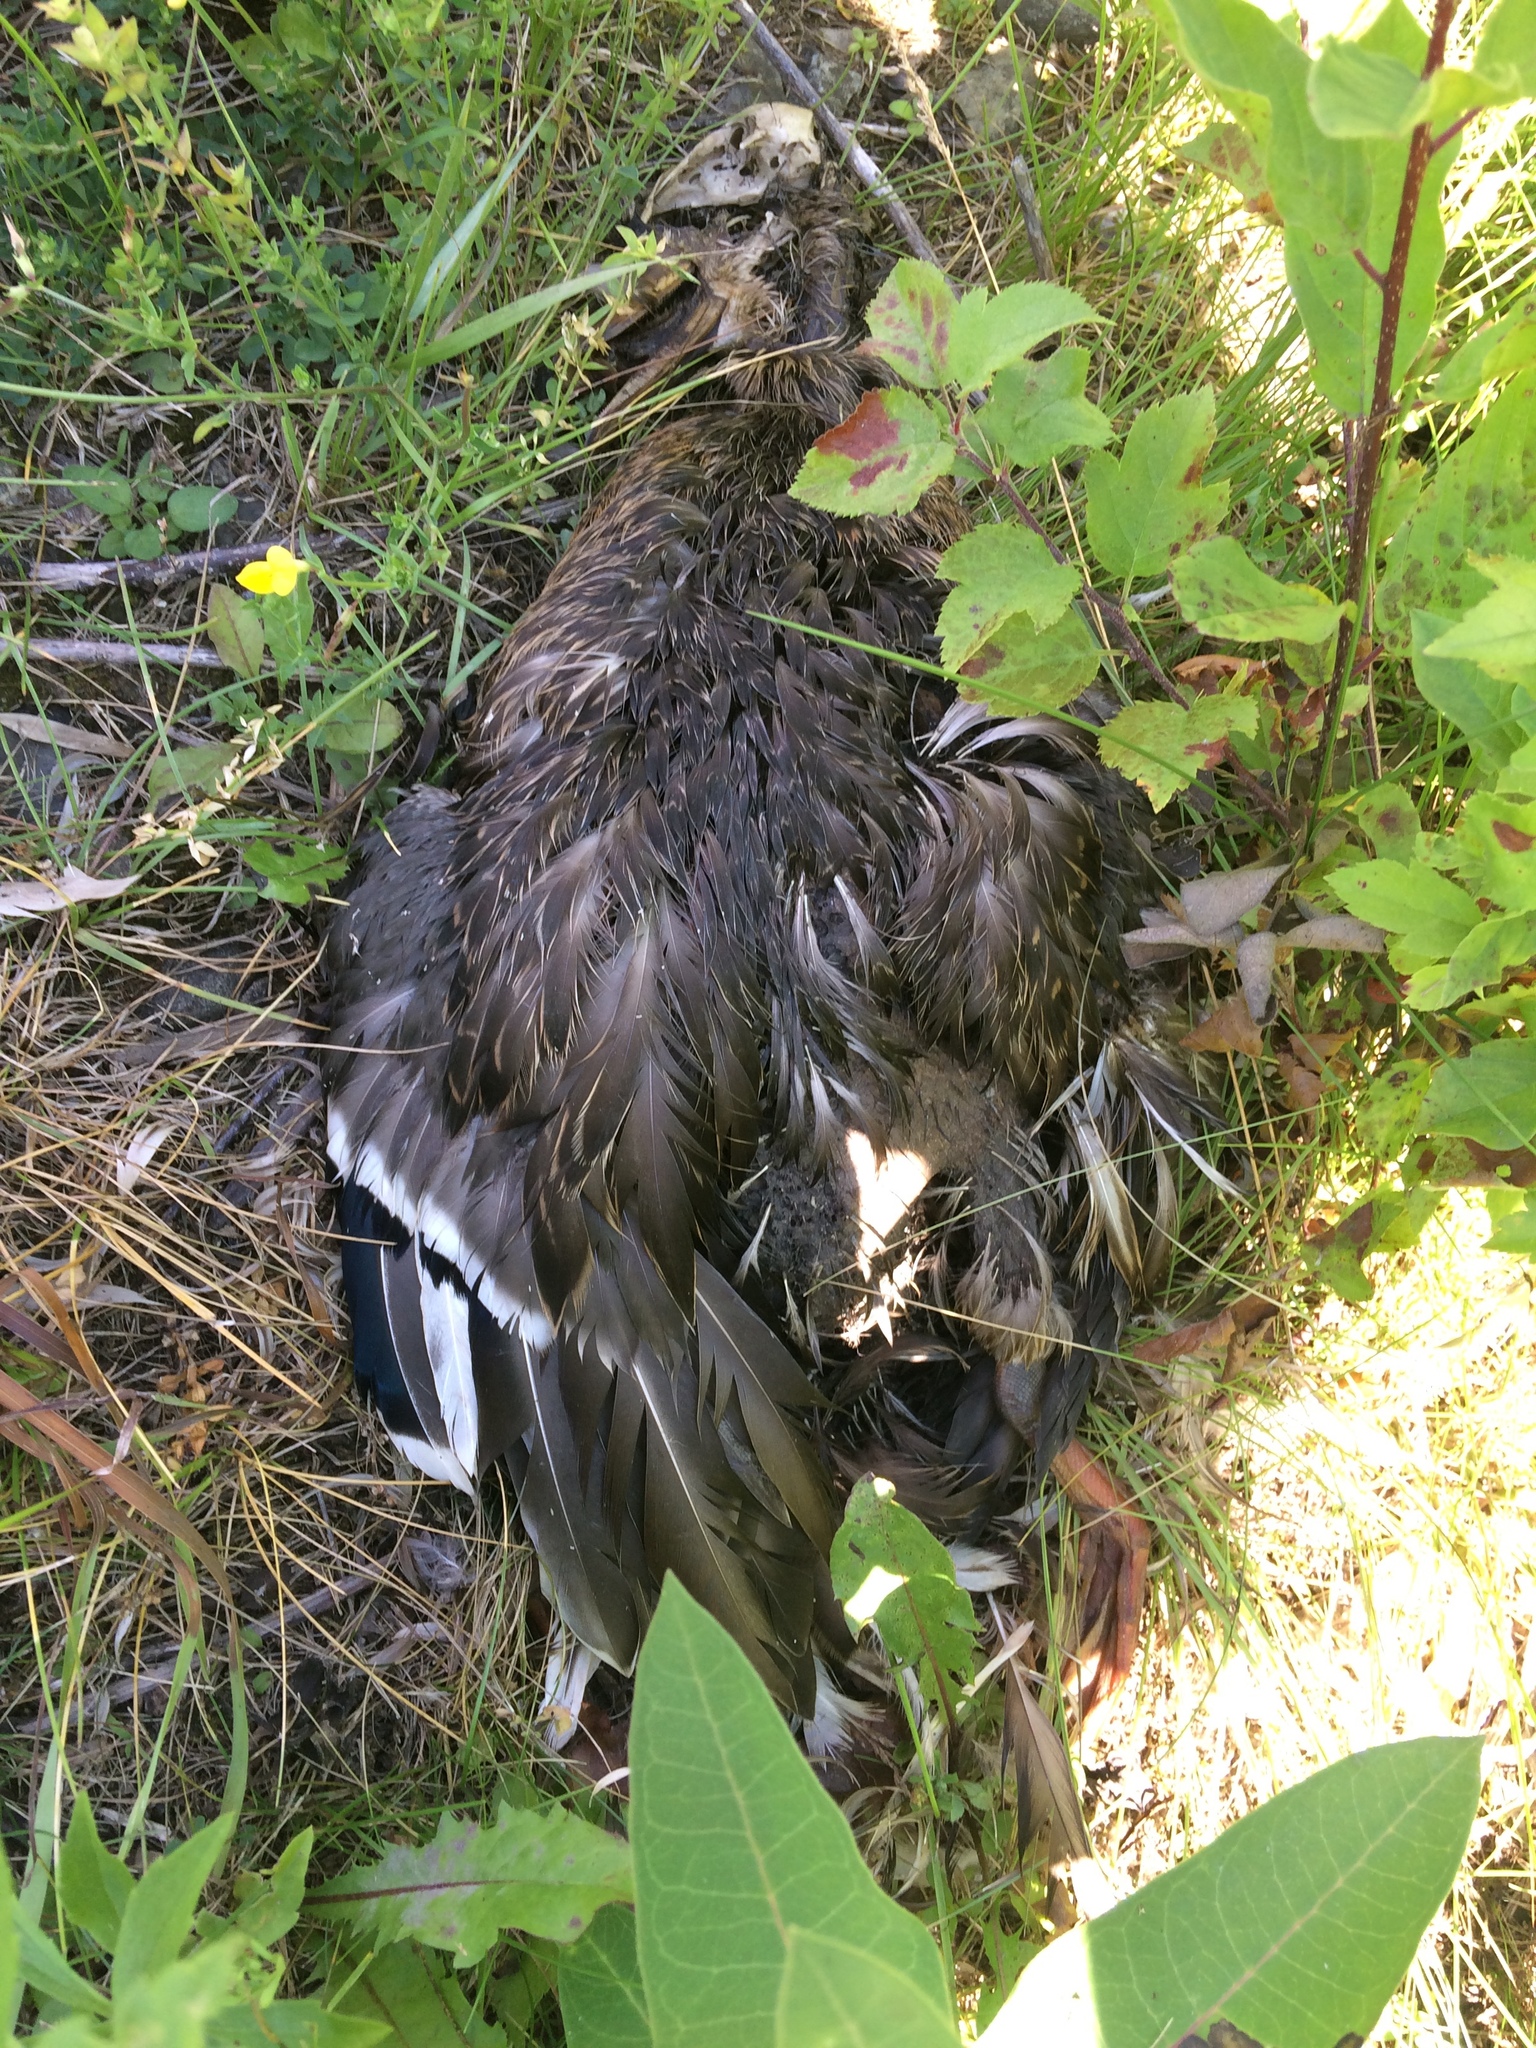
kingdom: Animalia
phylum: Chordata
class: Aves
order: Anseriformes
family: Anatidae
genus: Anas
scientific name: Anas platyrhynchos
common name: Mallard
